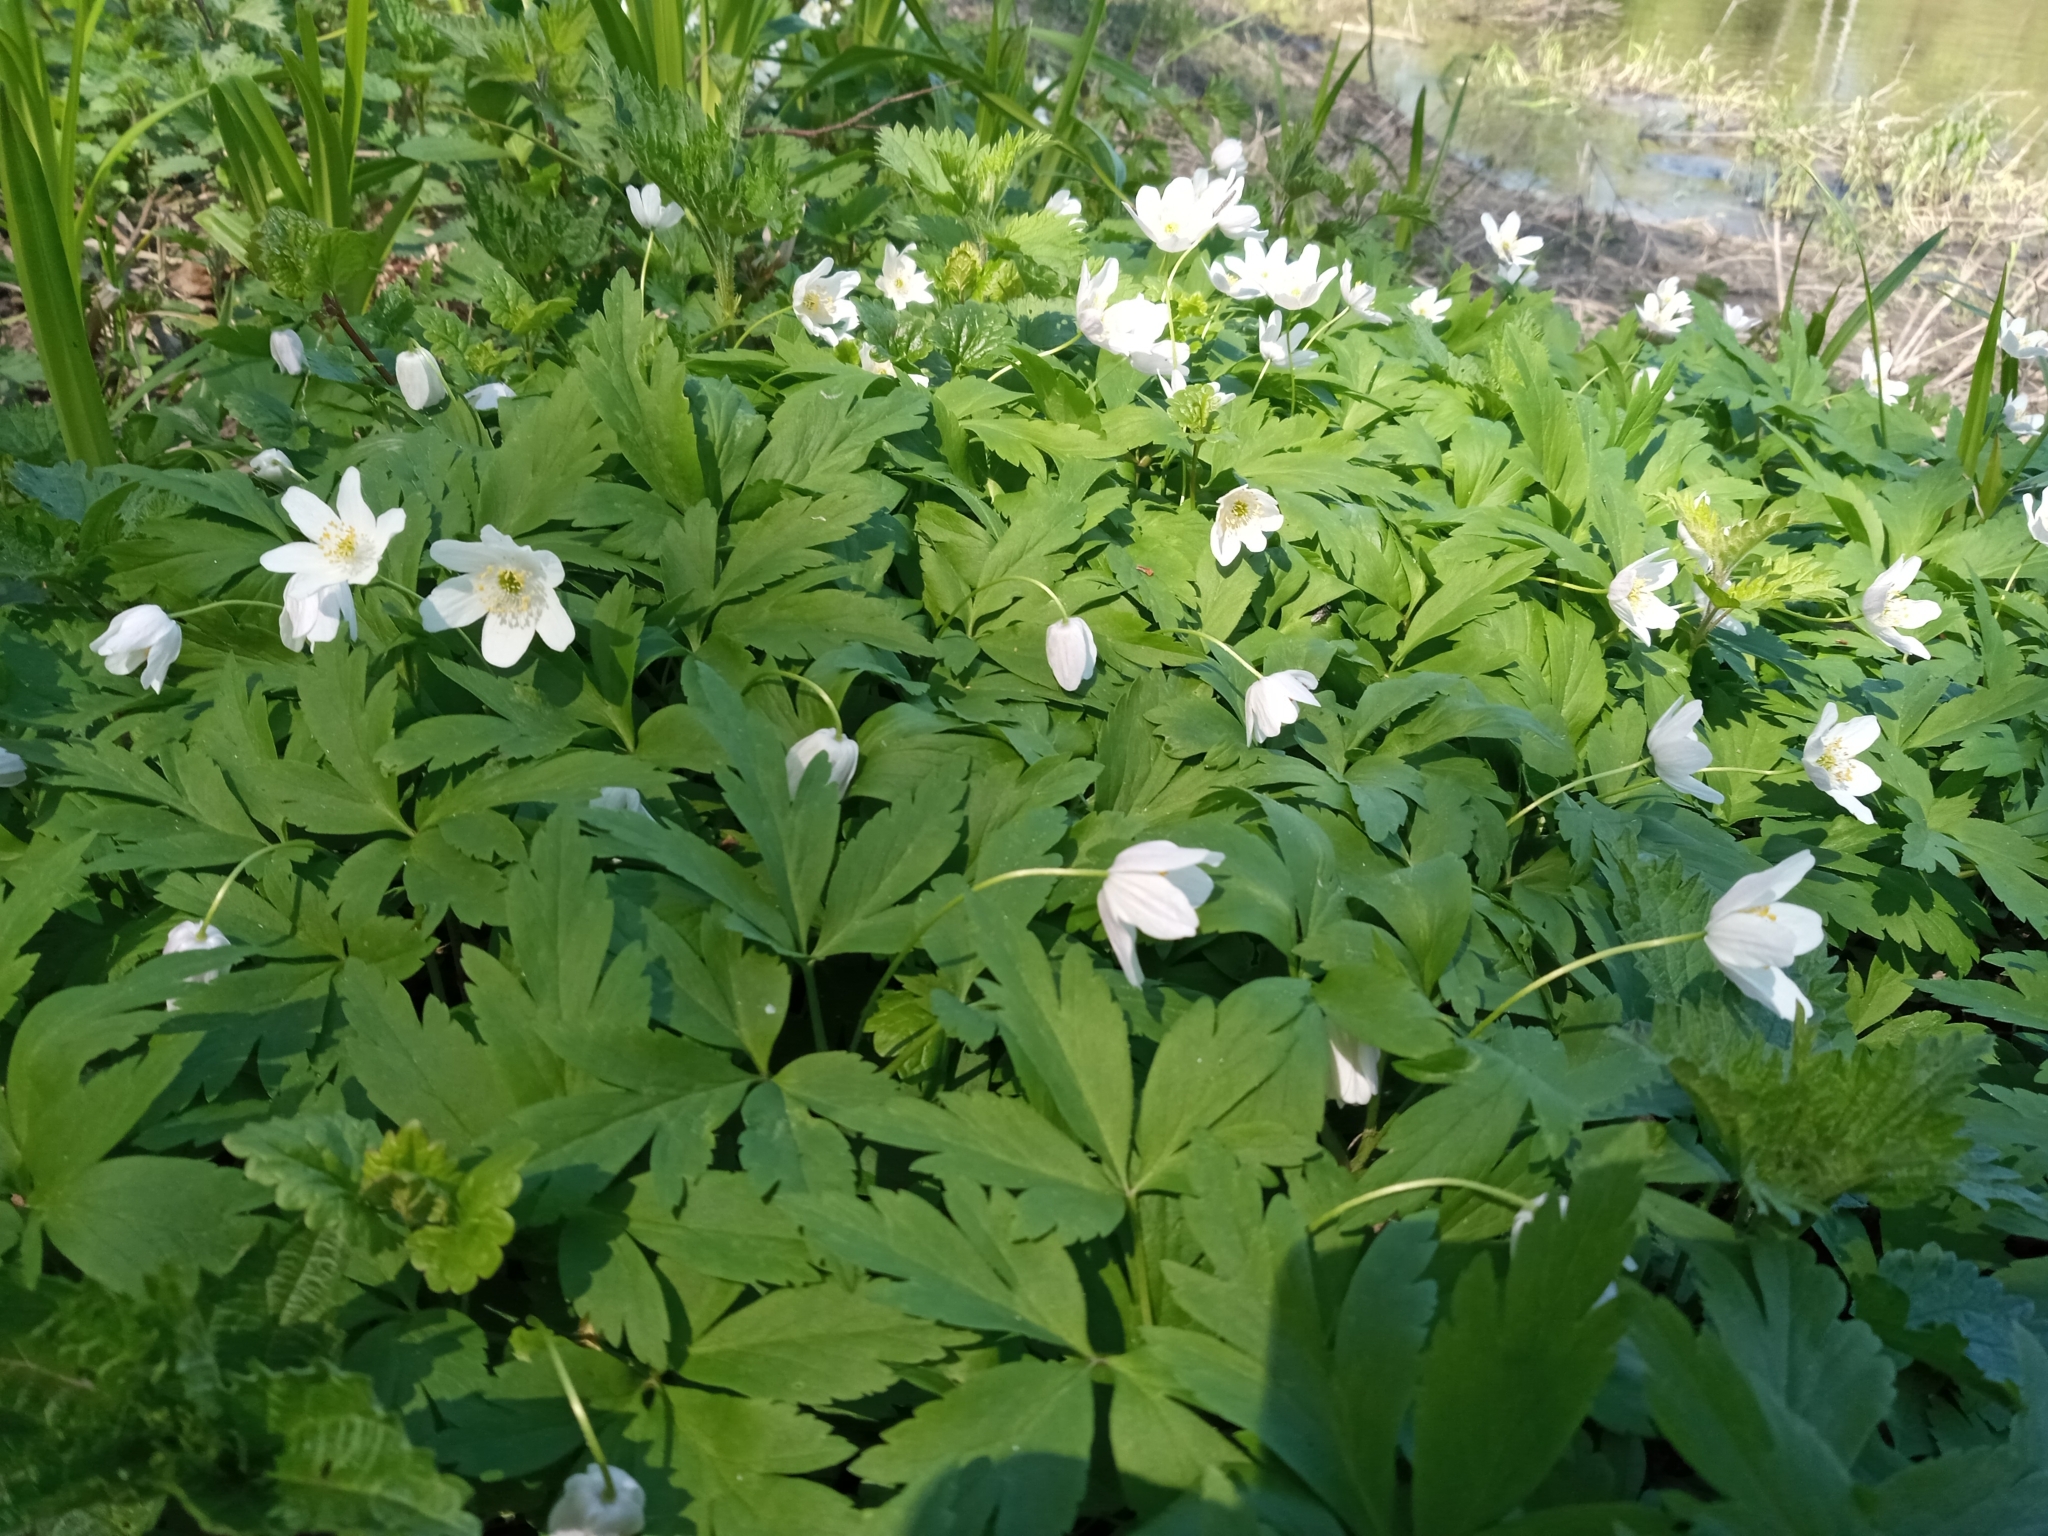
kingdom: Plantae
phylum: Tracheophyta
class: Magnoliopsida
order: Ranunculales
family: Ranunculaceae
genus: Anemone
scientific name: Anemone nemorosa
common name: Wood anemone
